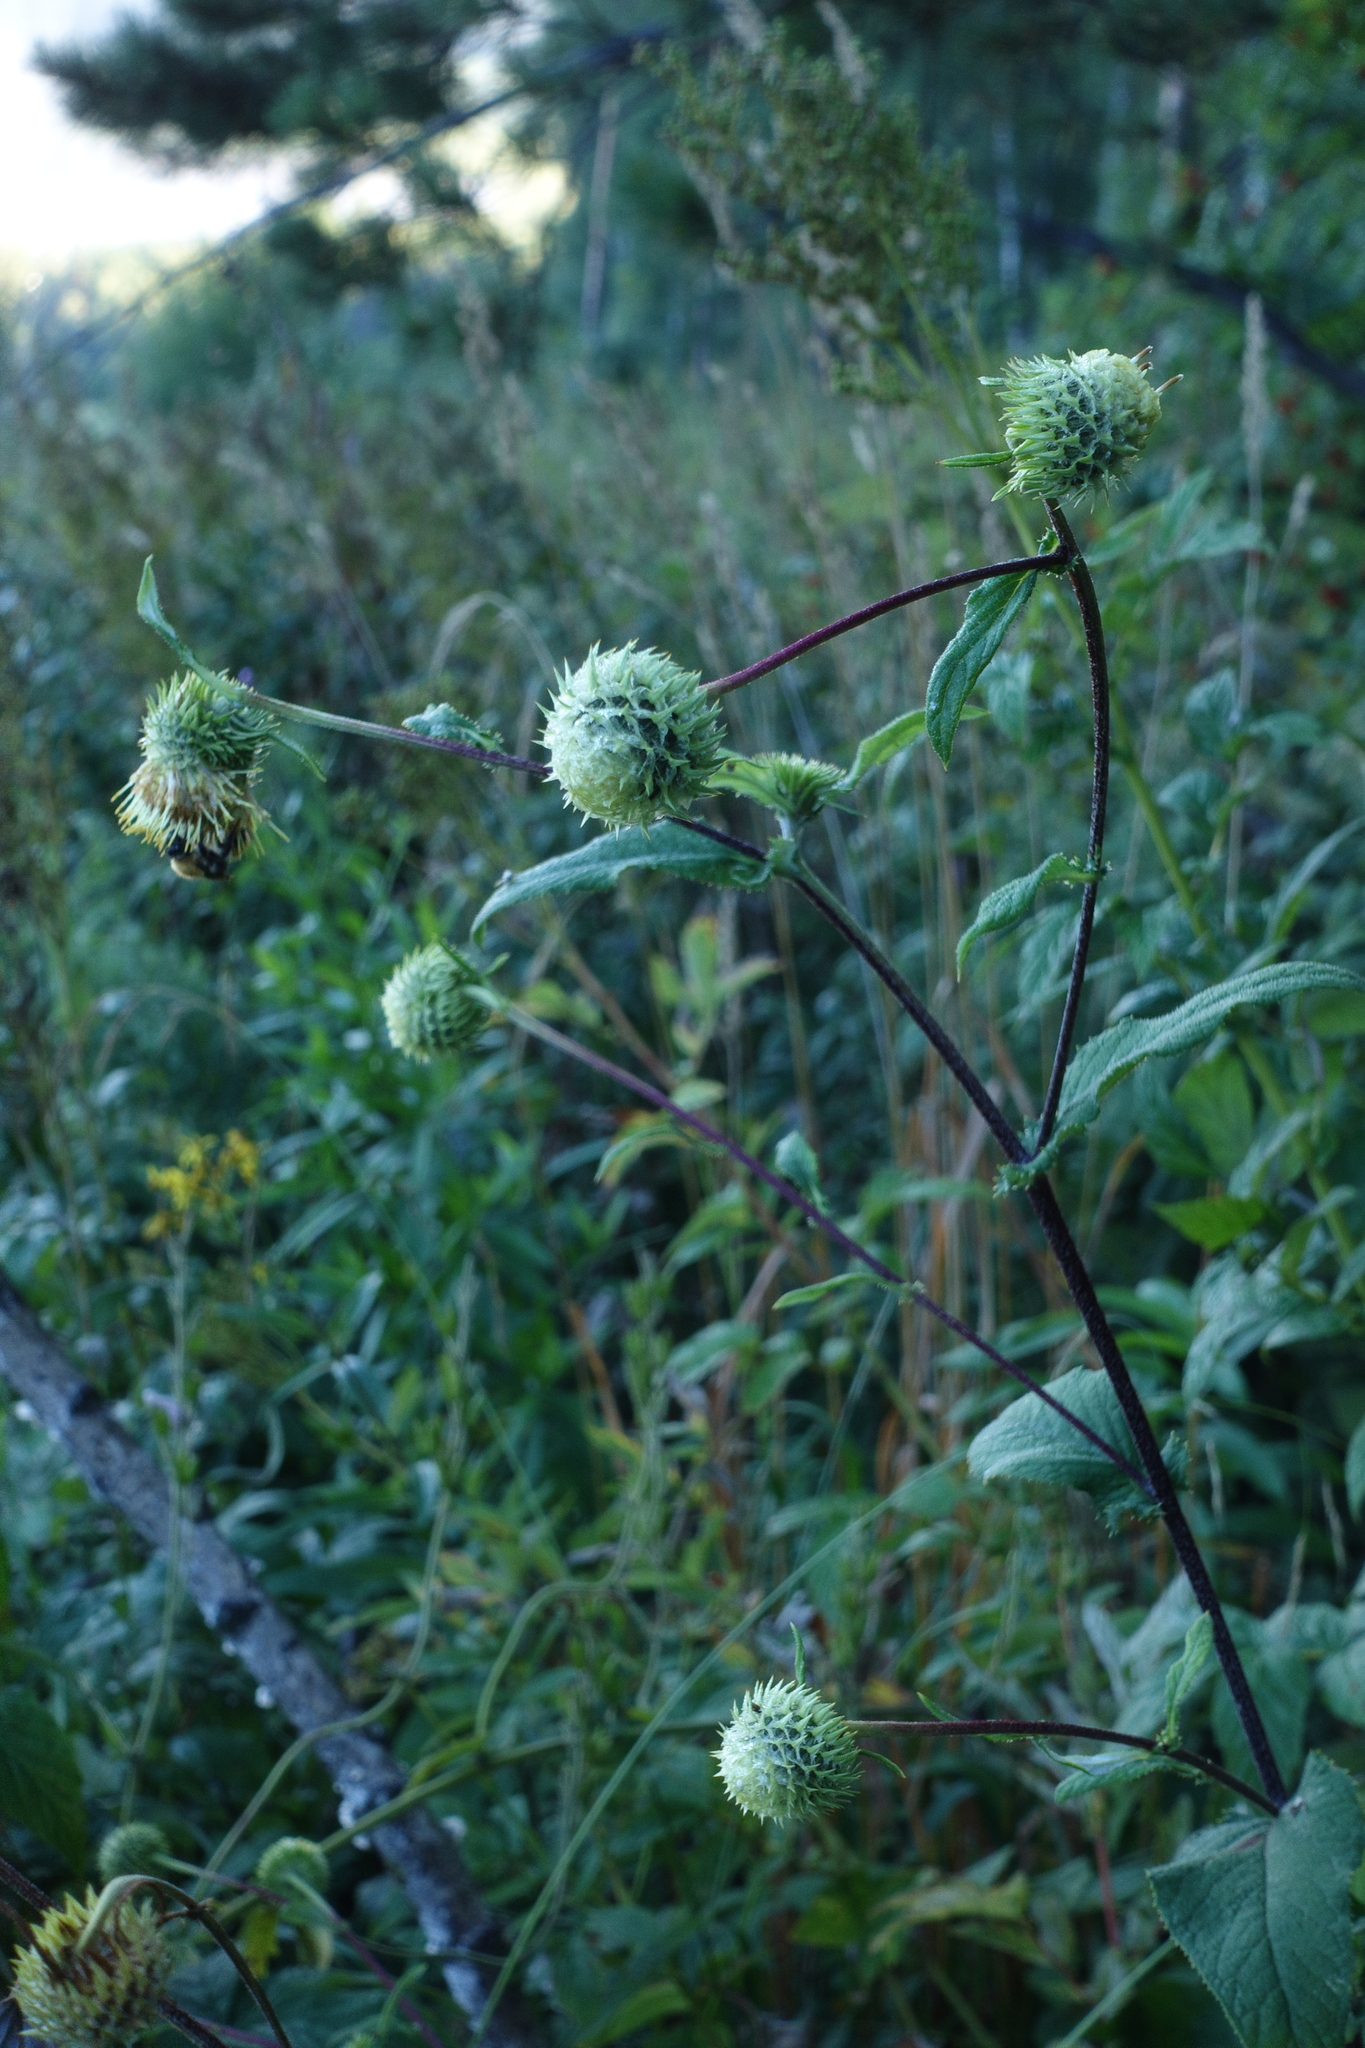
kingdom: Plantae
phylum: Tracheophyta
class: Magnoliopsida
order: Asterales
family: Asteraceae
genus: Alfredia
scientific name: Alfredia cernua
